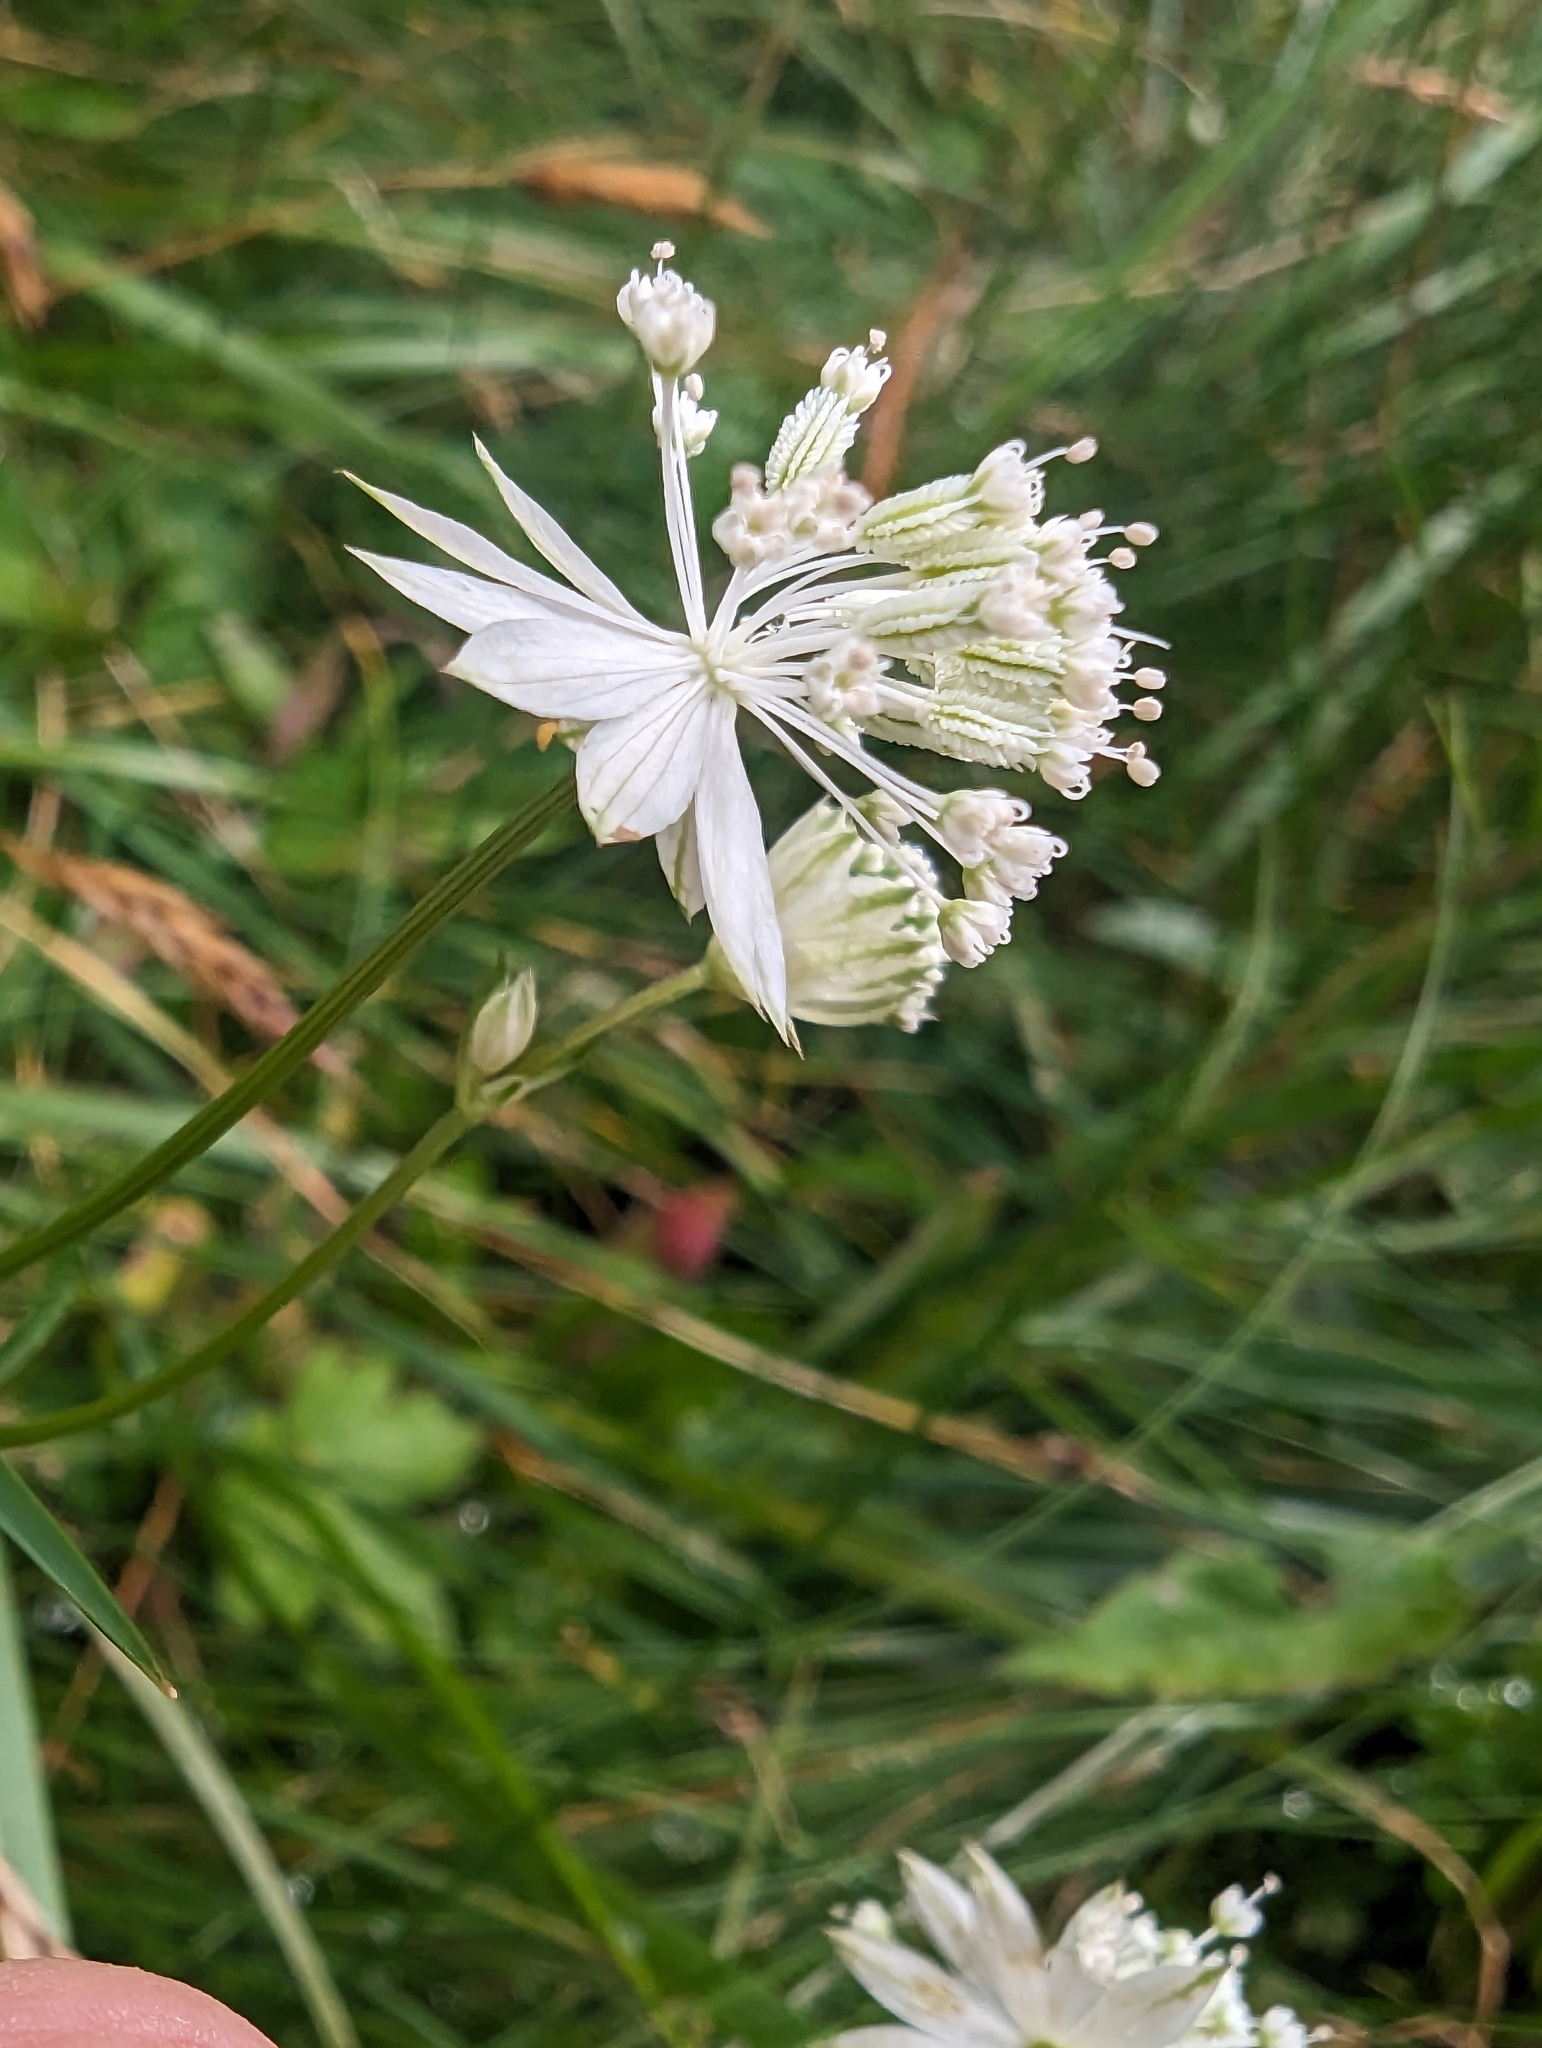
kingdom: Plantae
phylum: Tracheophyta
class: Magnoliopsida
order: Apiales
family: Apiaceae
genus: Astrantia
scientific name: Astrantia minor
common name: Lesser masterwort
